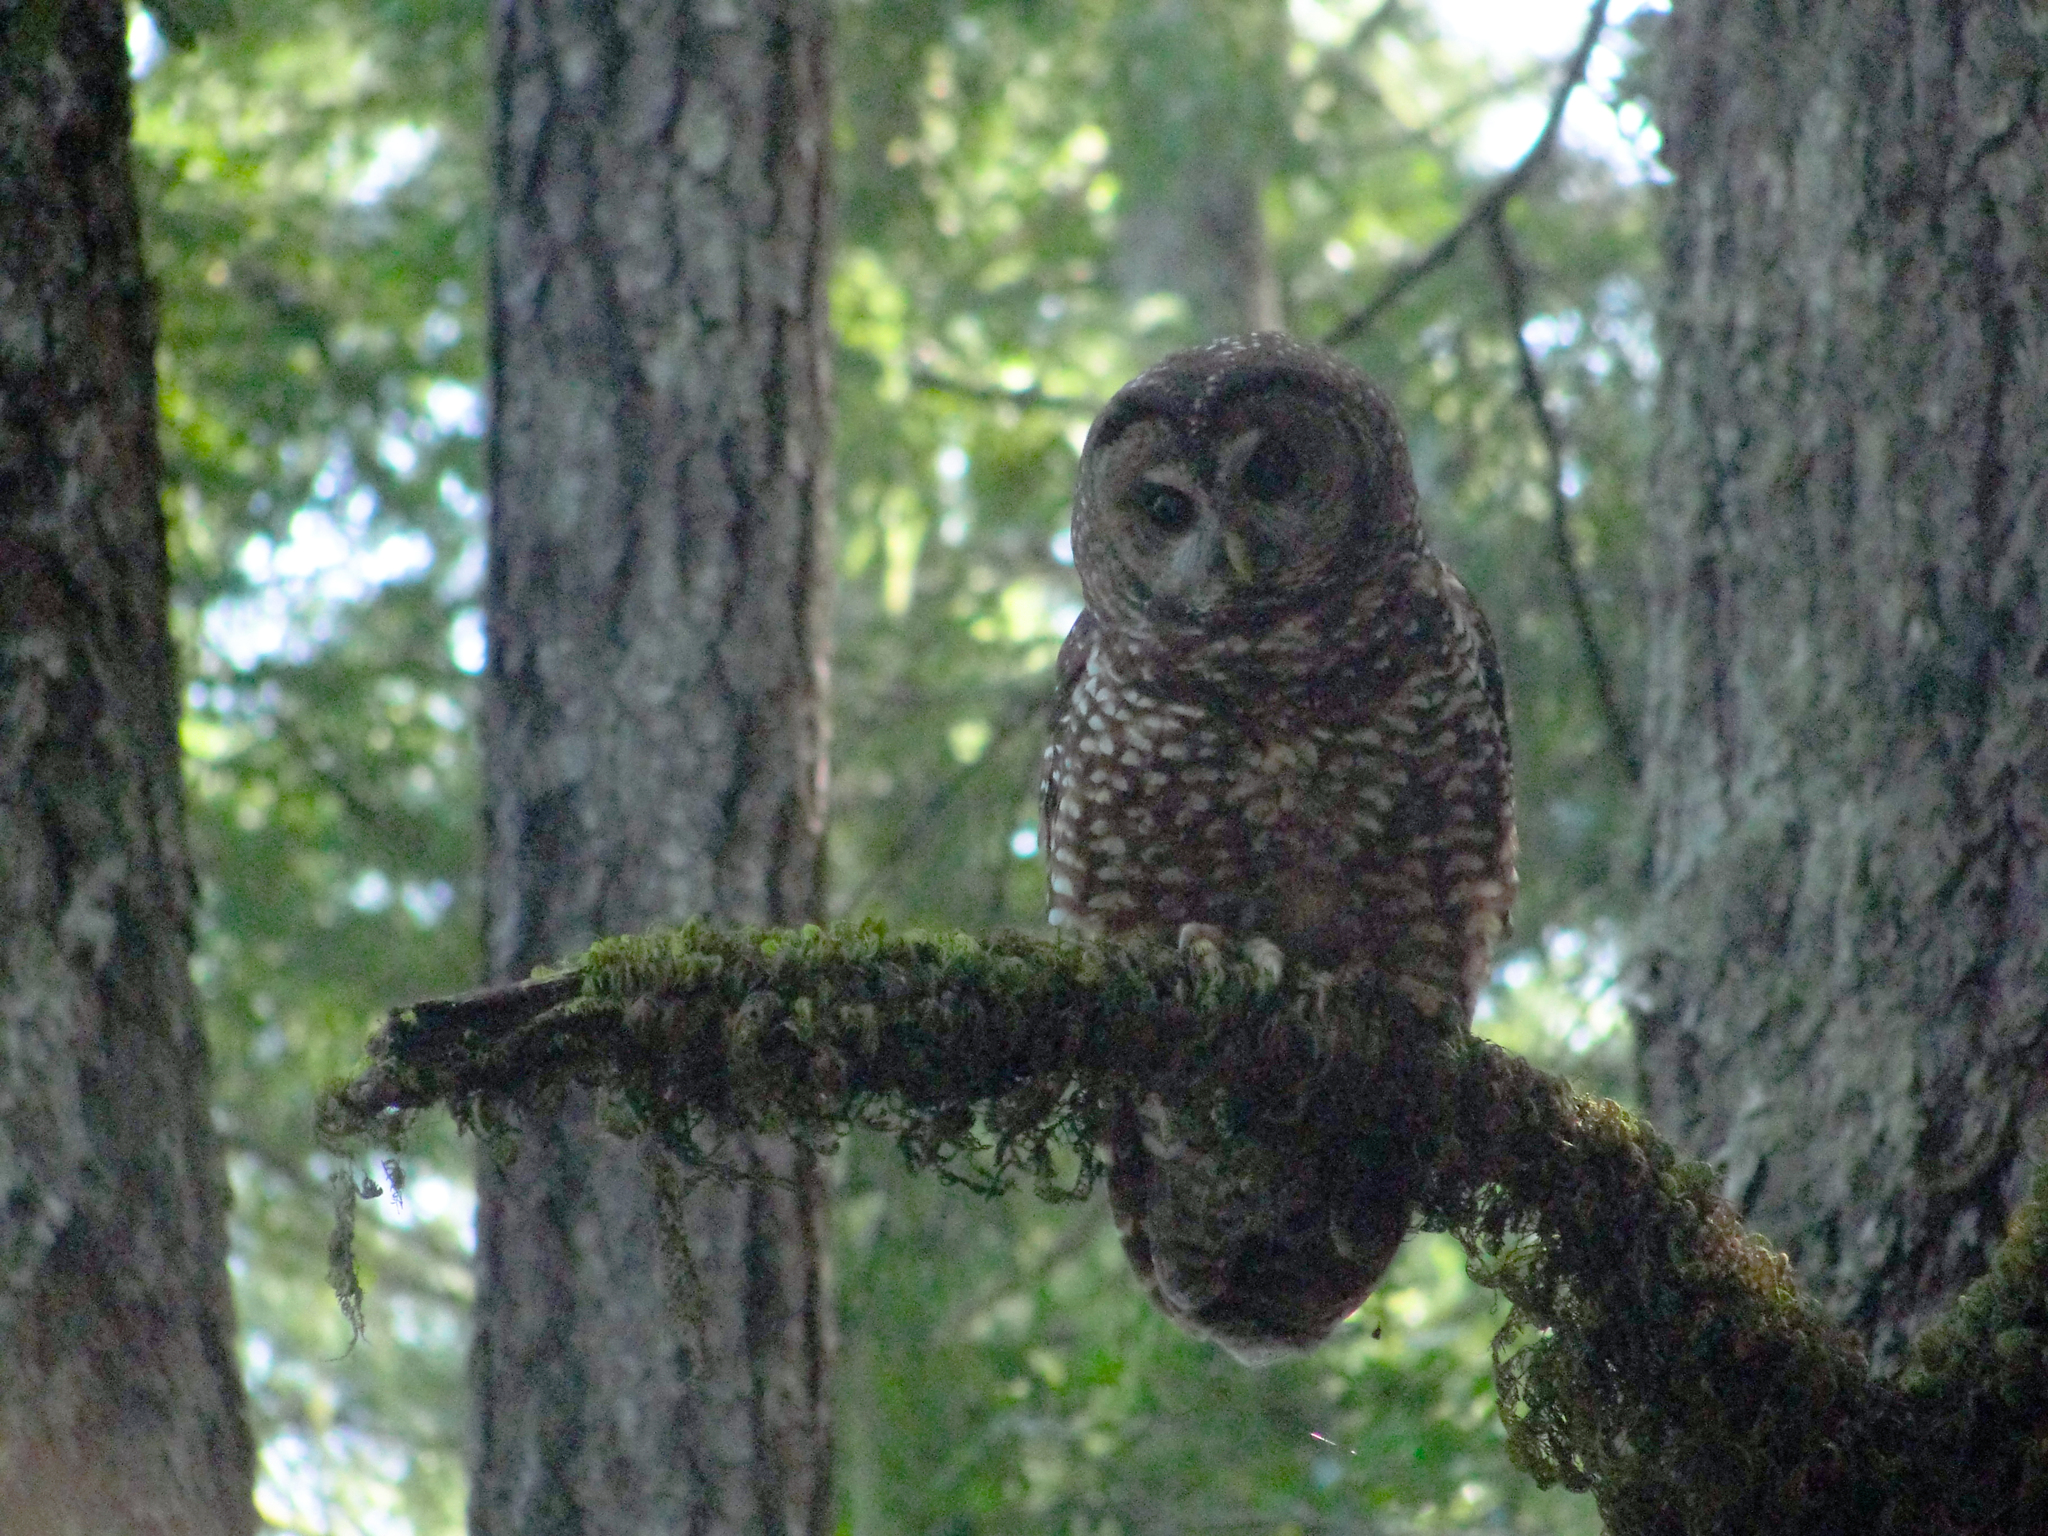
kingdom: Animalia
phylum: Chordata
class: Aves
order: Strigiformes
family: Strigidae
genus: Strix
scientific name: Strix occidentalis
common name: Spotted owl
